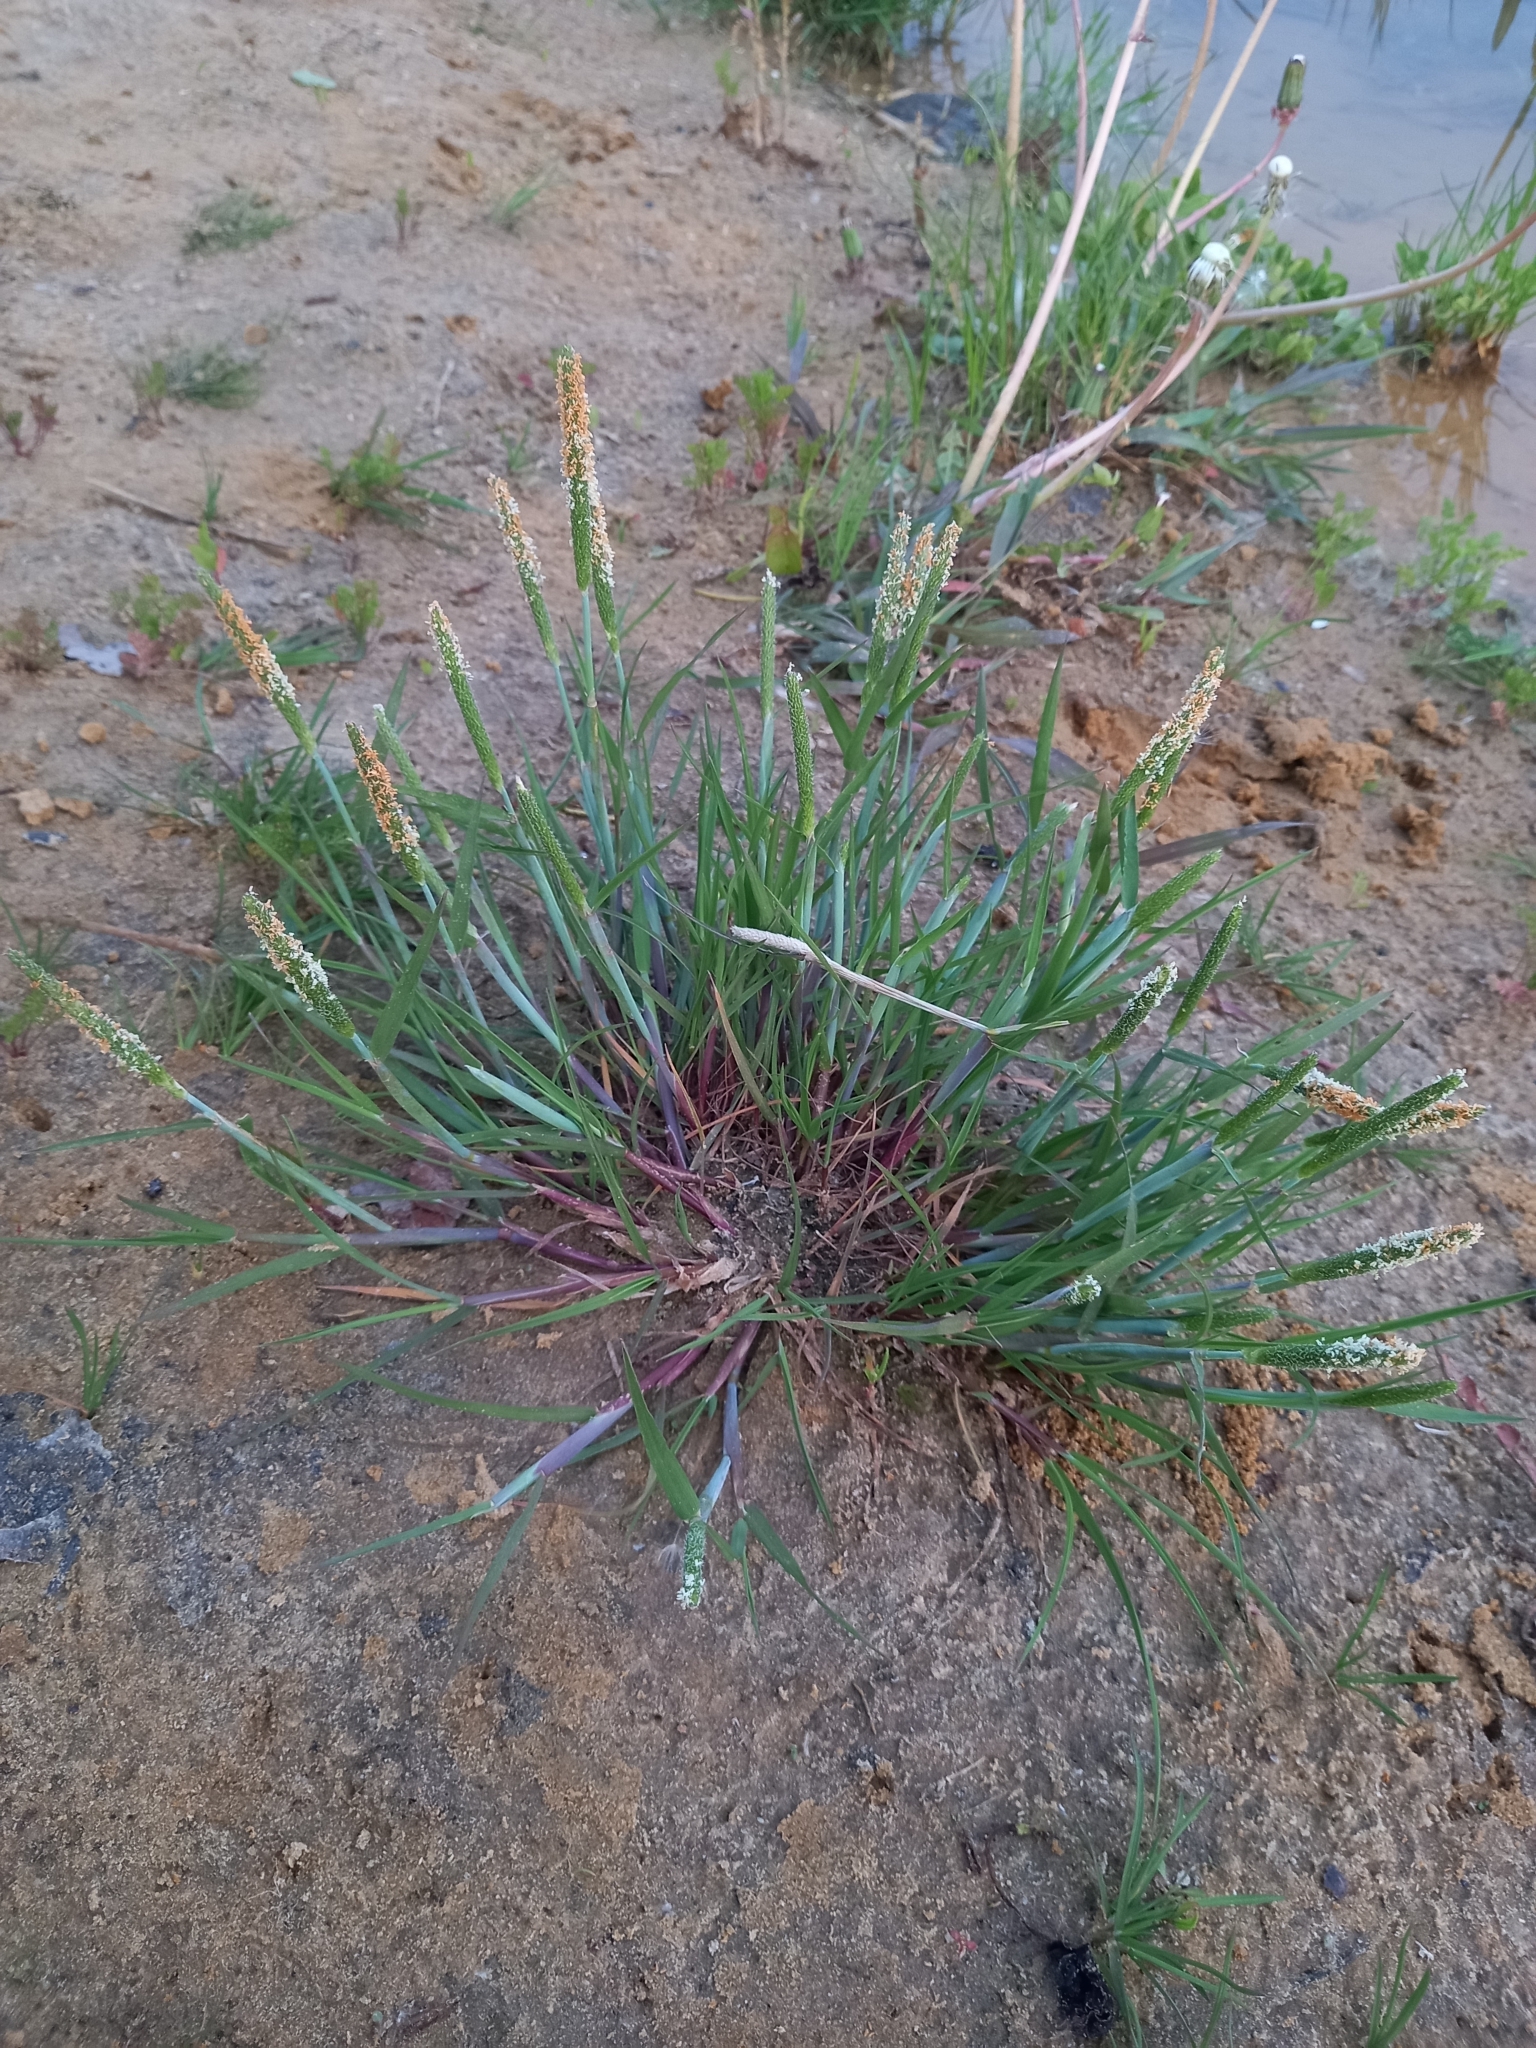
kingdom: Plantae
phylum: Tracheophyta
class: Liliopsida
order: Poales
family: Poaceae
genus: Alopecurus
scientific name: Alopecurus aequalis
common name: Orange foxtail
